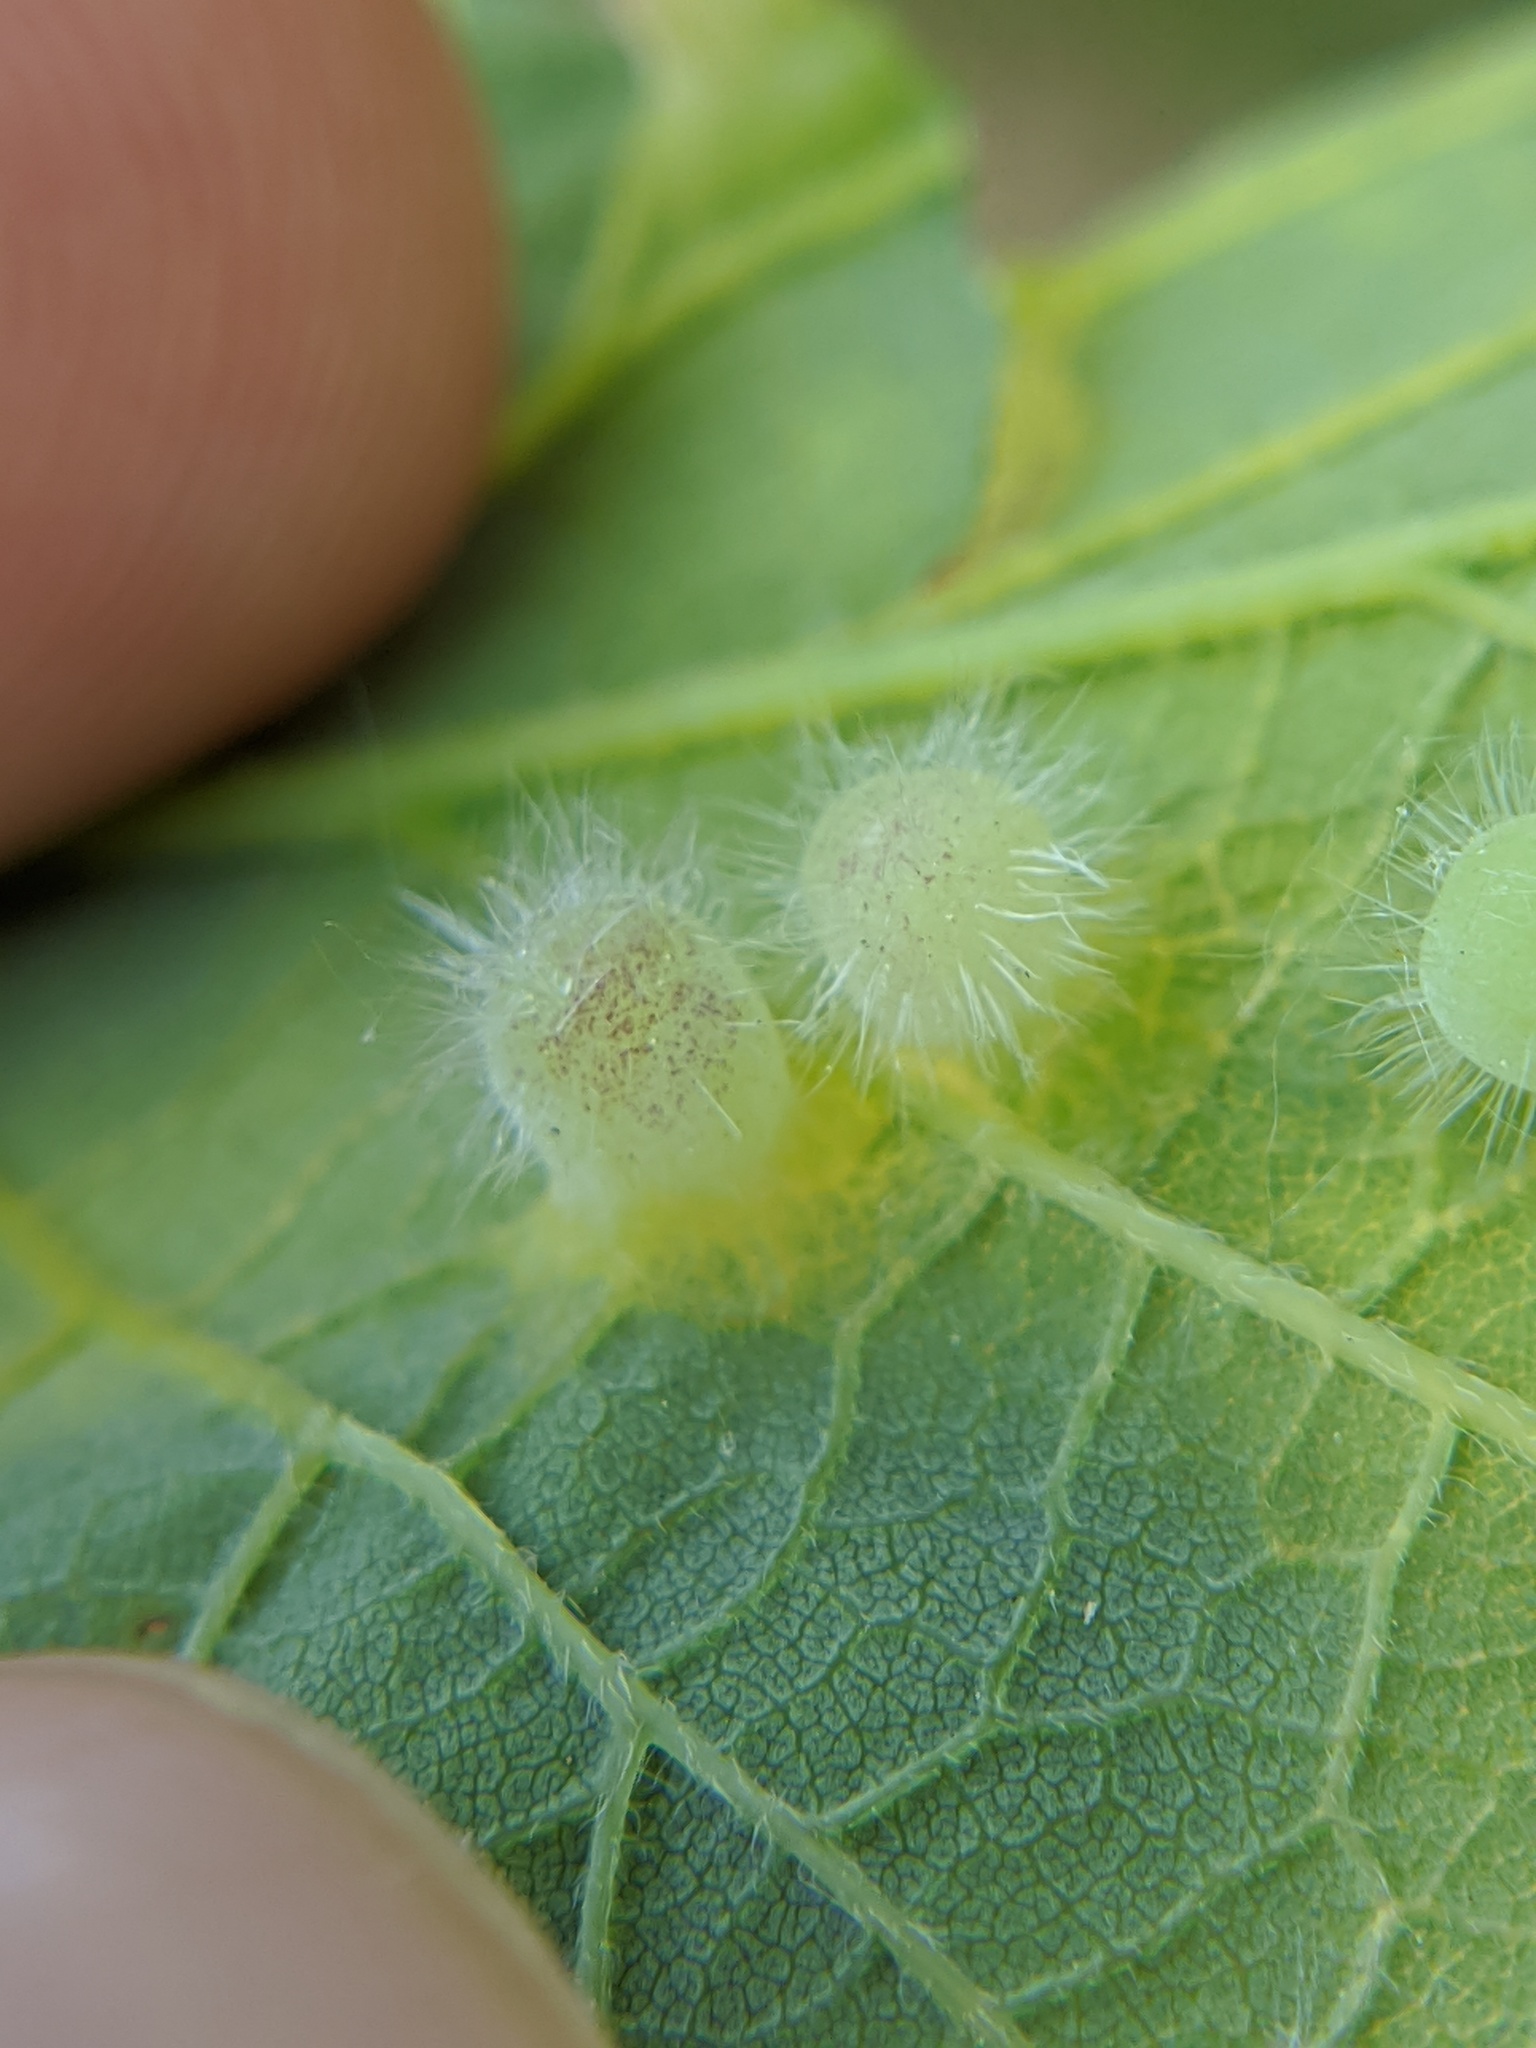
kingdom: Animalia
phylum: Arthropoda
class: Insecta
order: Hemiptera
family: Aphalaridae
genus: Pachypsylla
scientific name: Pachypsylla celtidismamma
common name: Hackberry nipplegall psyllid
